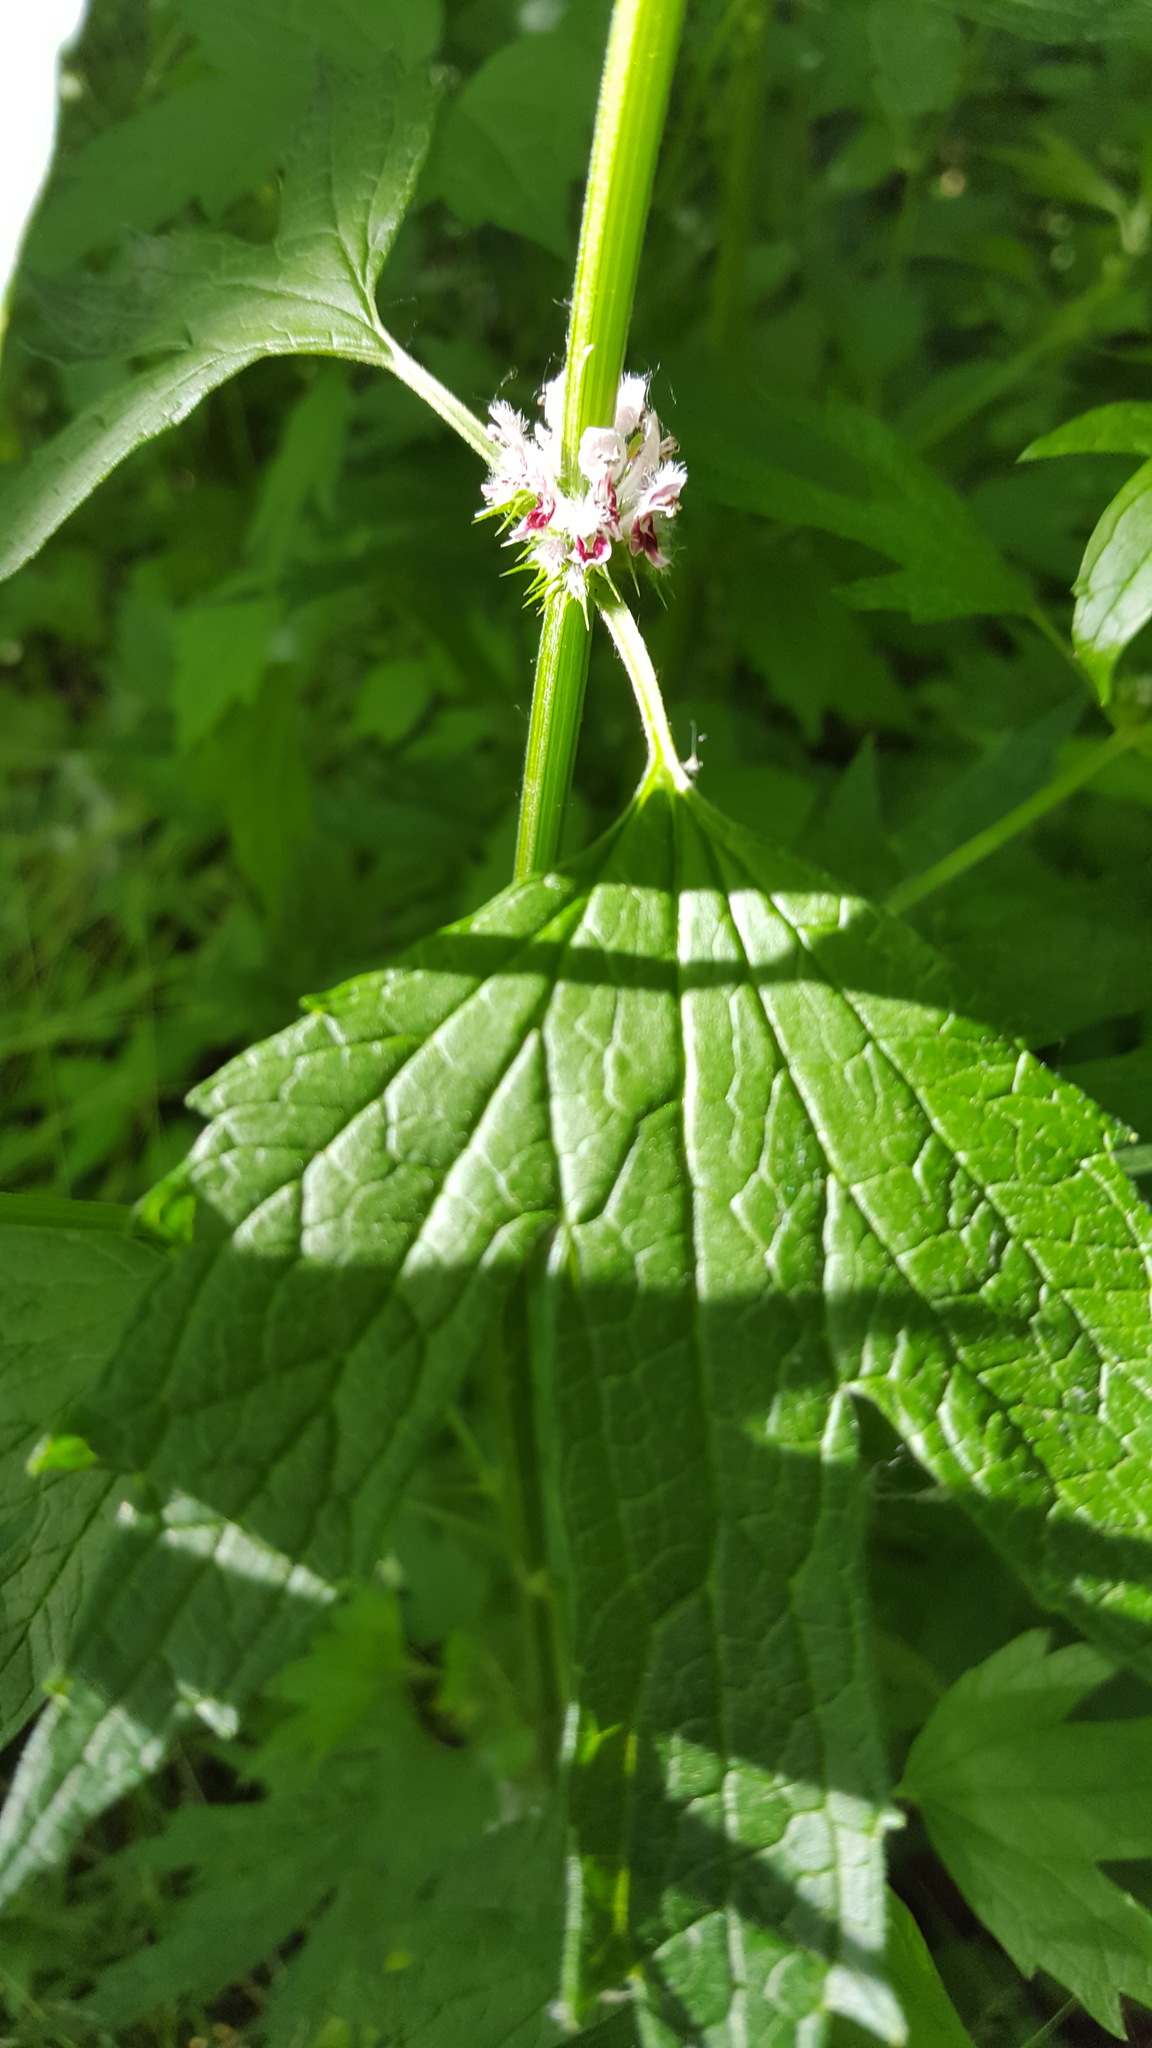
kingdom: Plantae
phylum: Tracheophyta
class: Magnoliopsida
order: Lamiales
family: Lamiaceae
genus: Leonurus
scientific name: Leonurus cardiaca
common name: Motherwort
